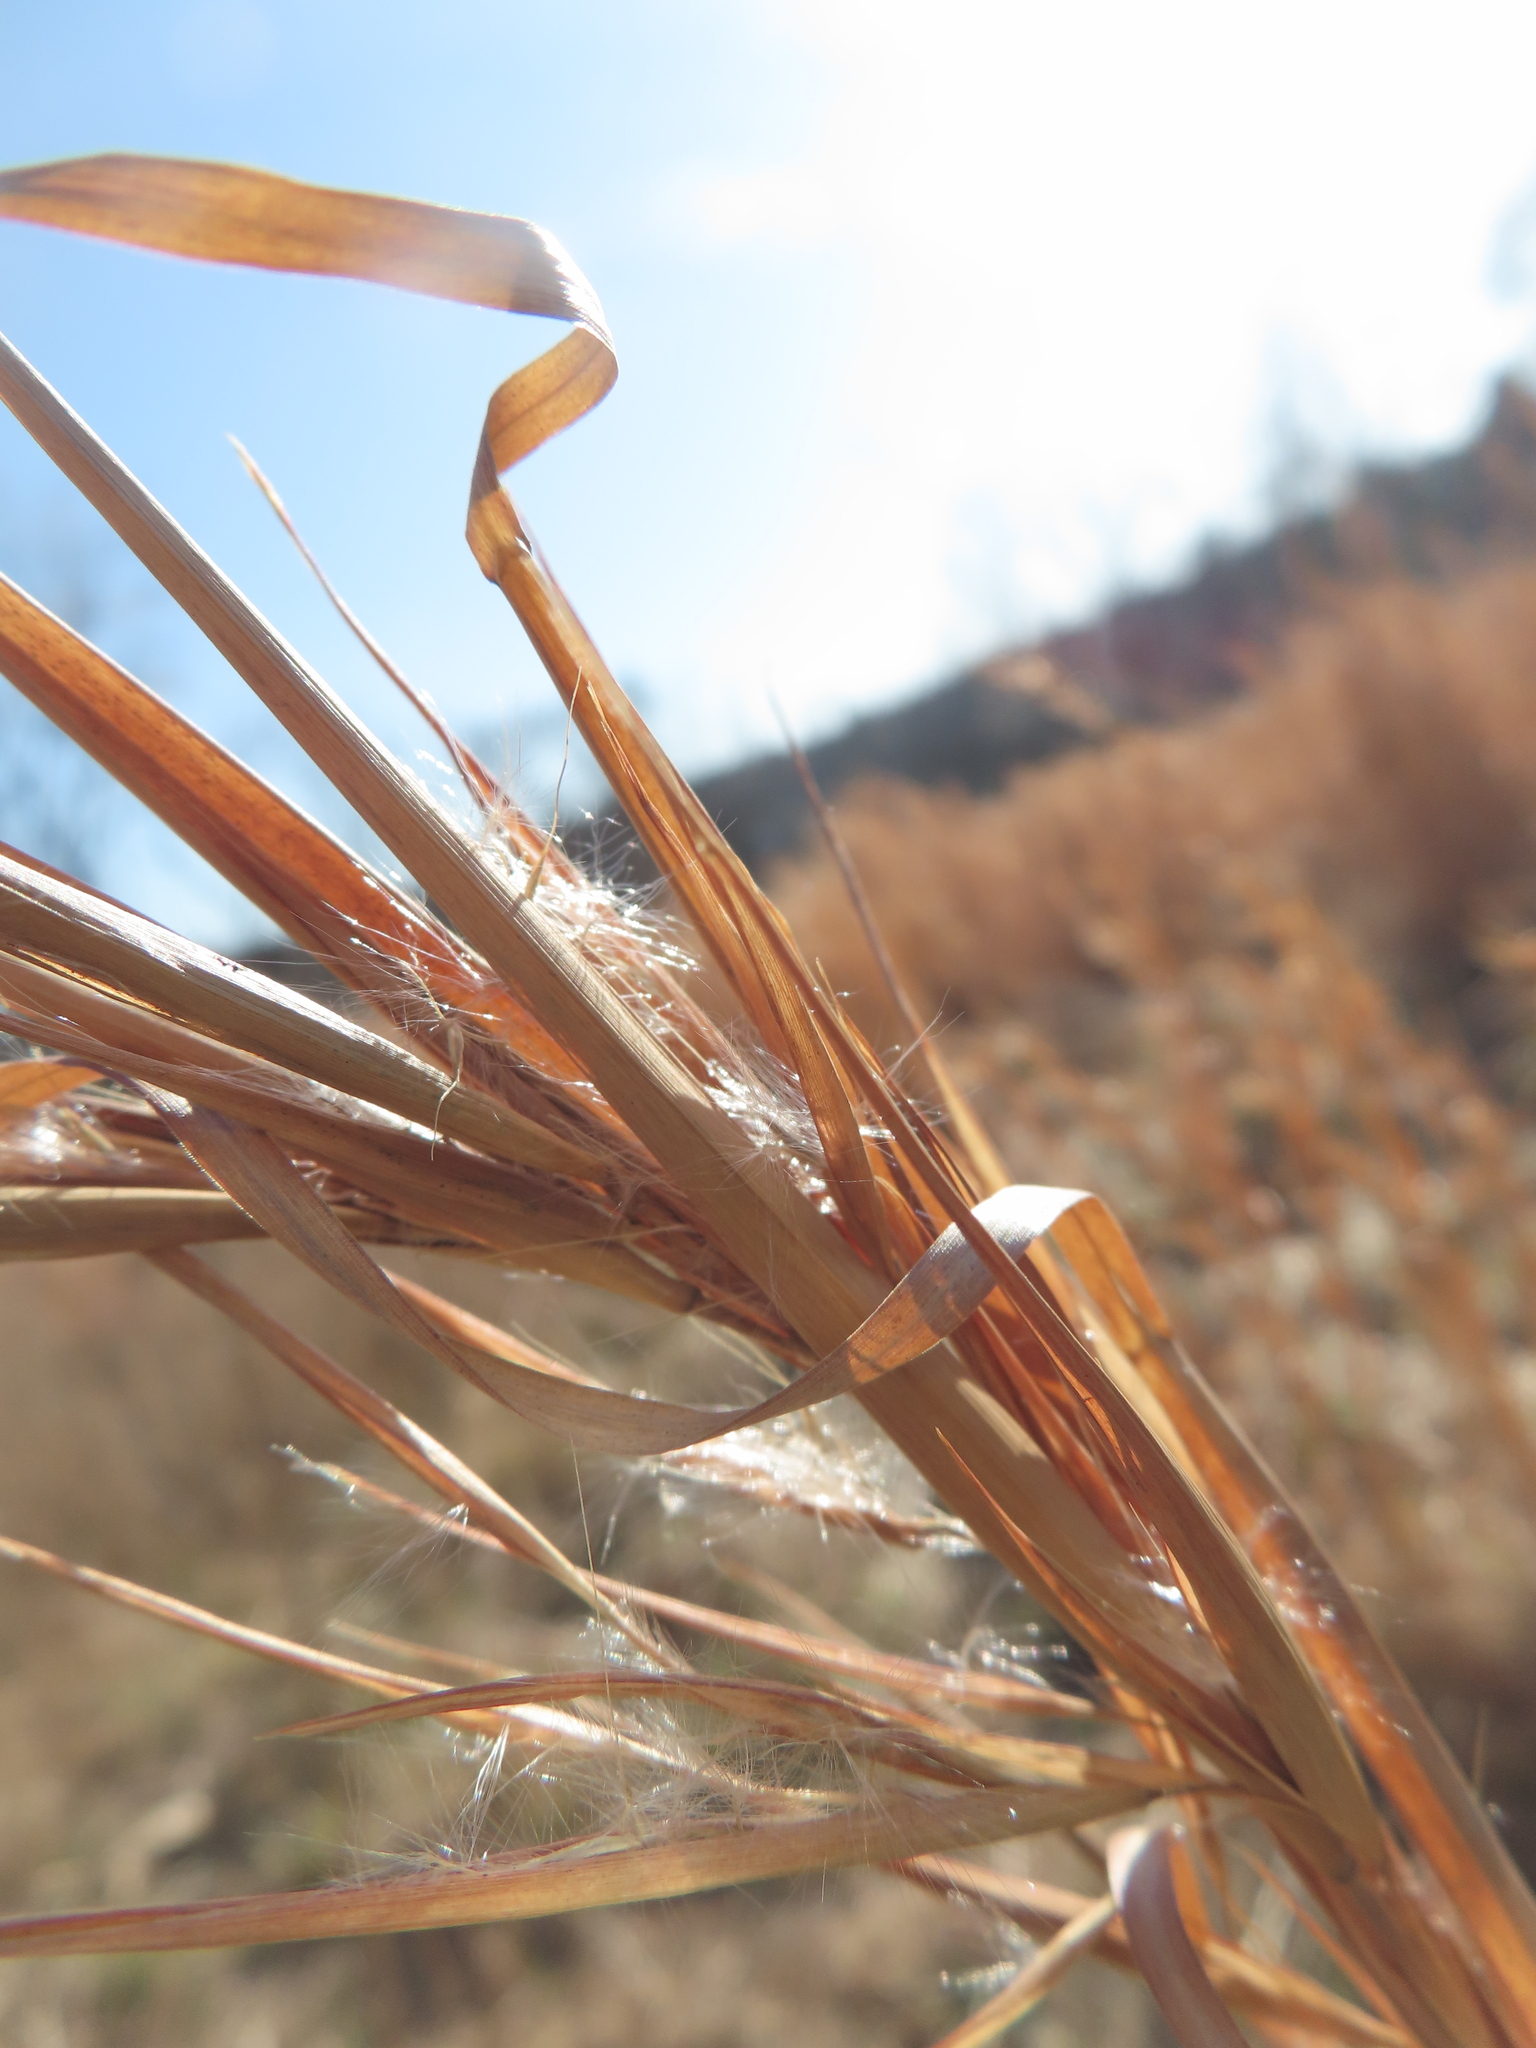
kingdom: Plantae
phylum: Tracheophyta
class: Liliopsida
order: Poales
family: Poaceae
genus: Andropogon
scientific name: Andropogon gyrans
